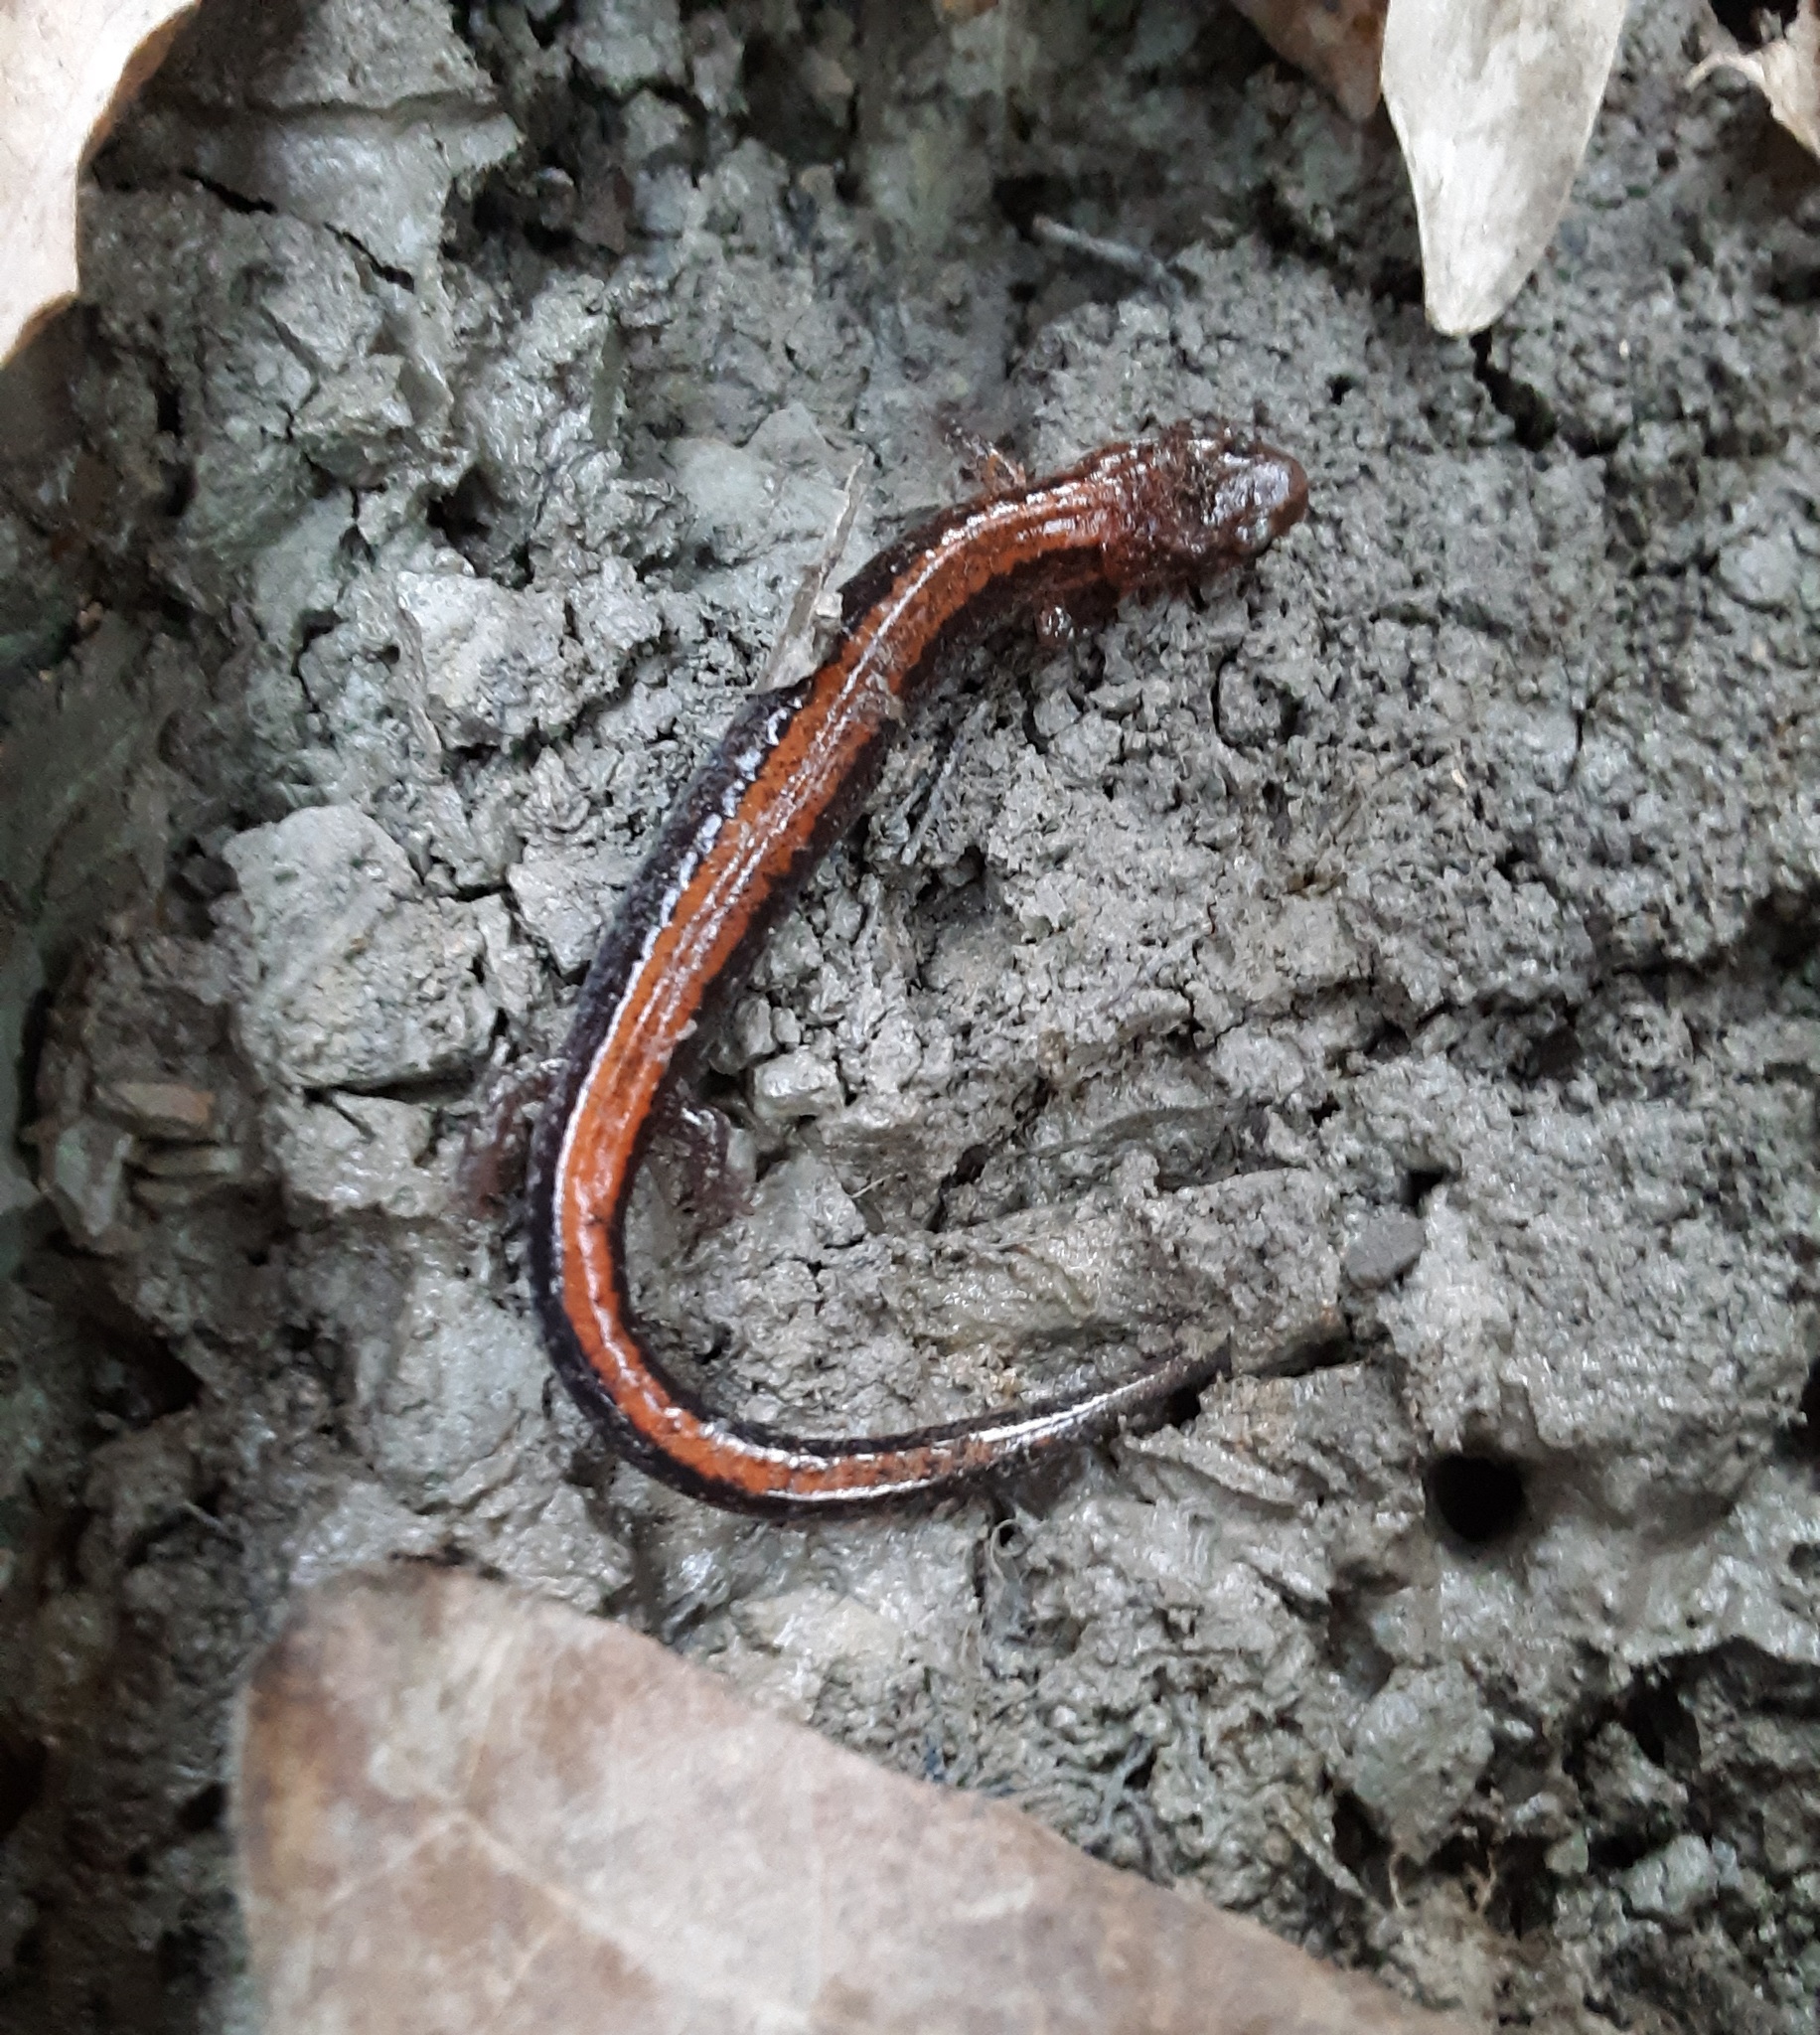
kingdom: Animalia
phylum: Chordata
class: Amphibia
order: Caudata
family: Plethodontidae
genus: Plethodon
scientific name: Plethodon cinereus
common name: Redback salamander
